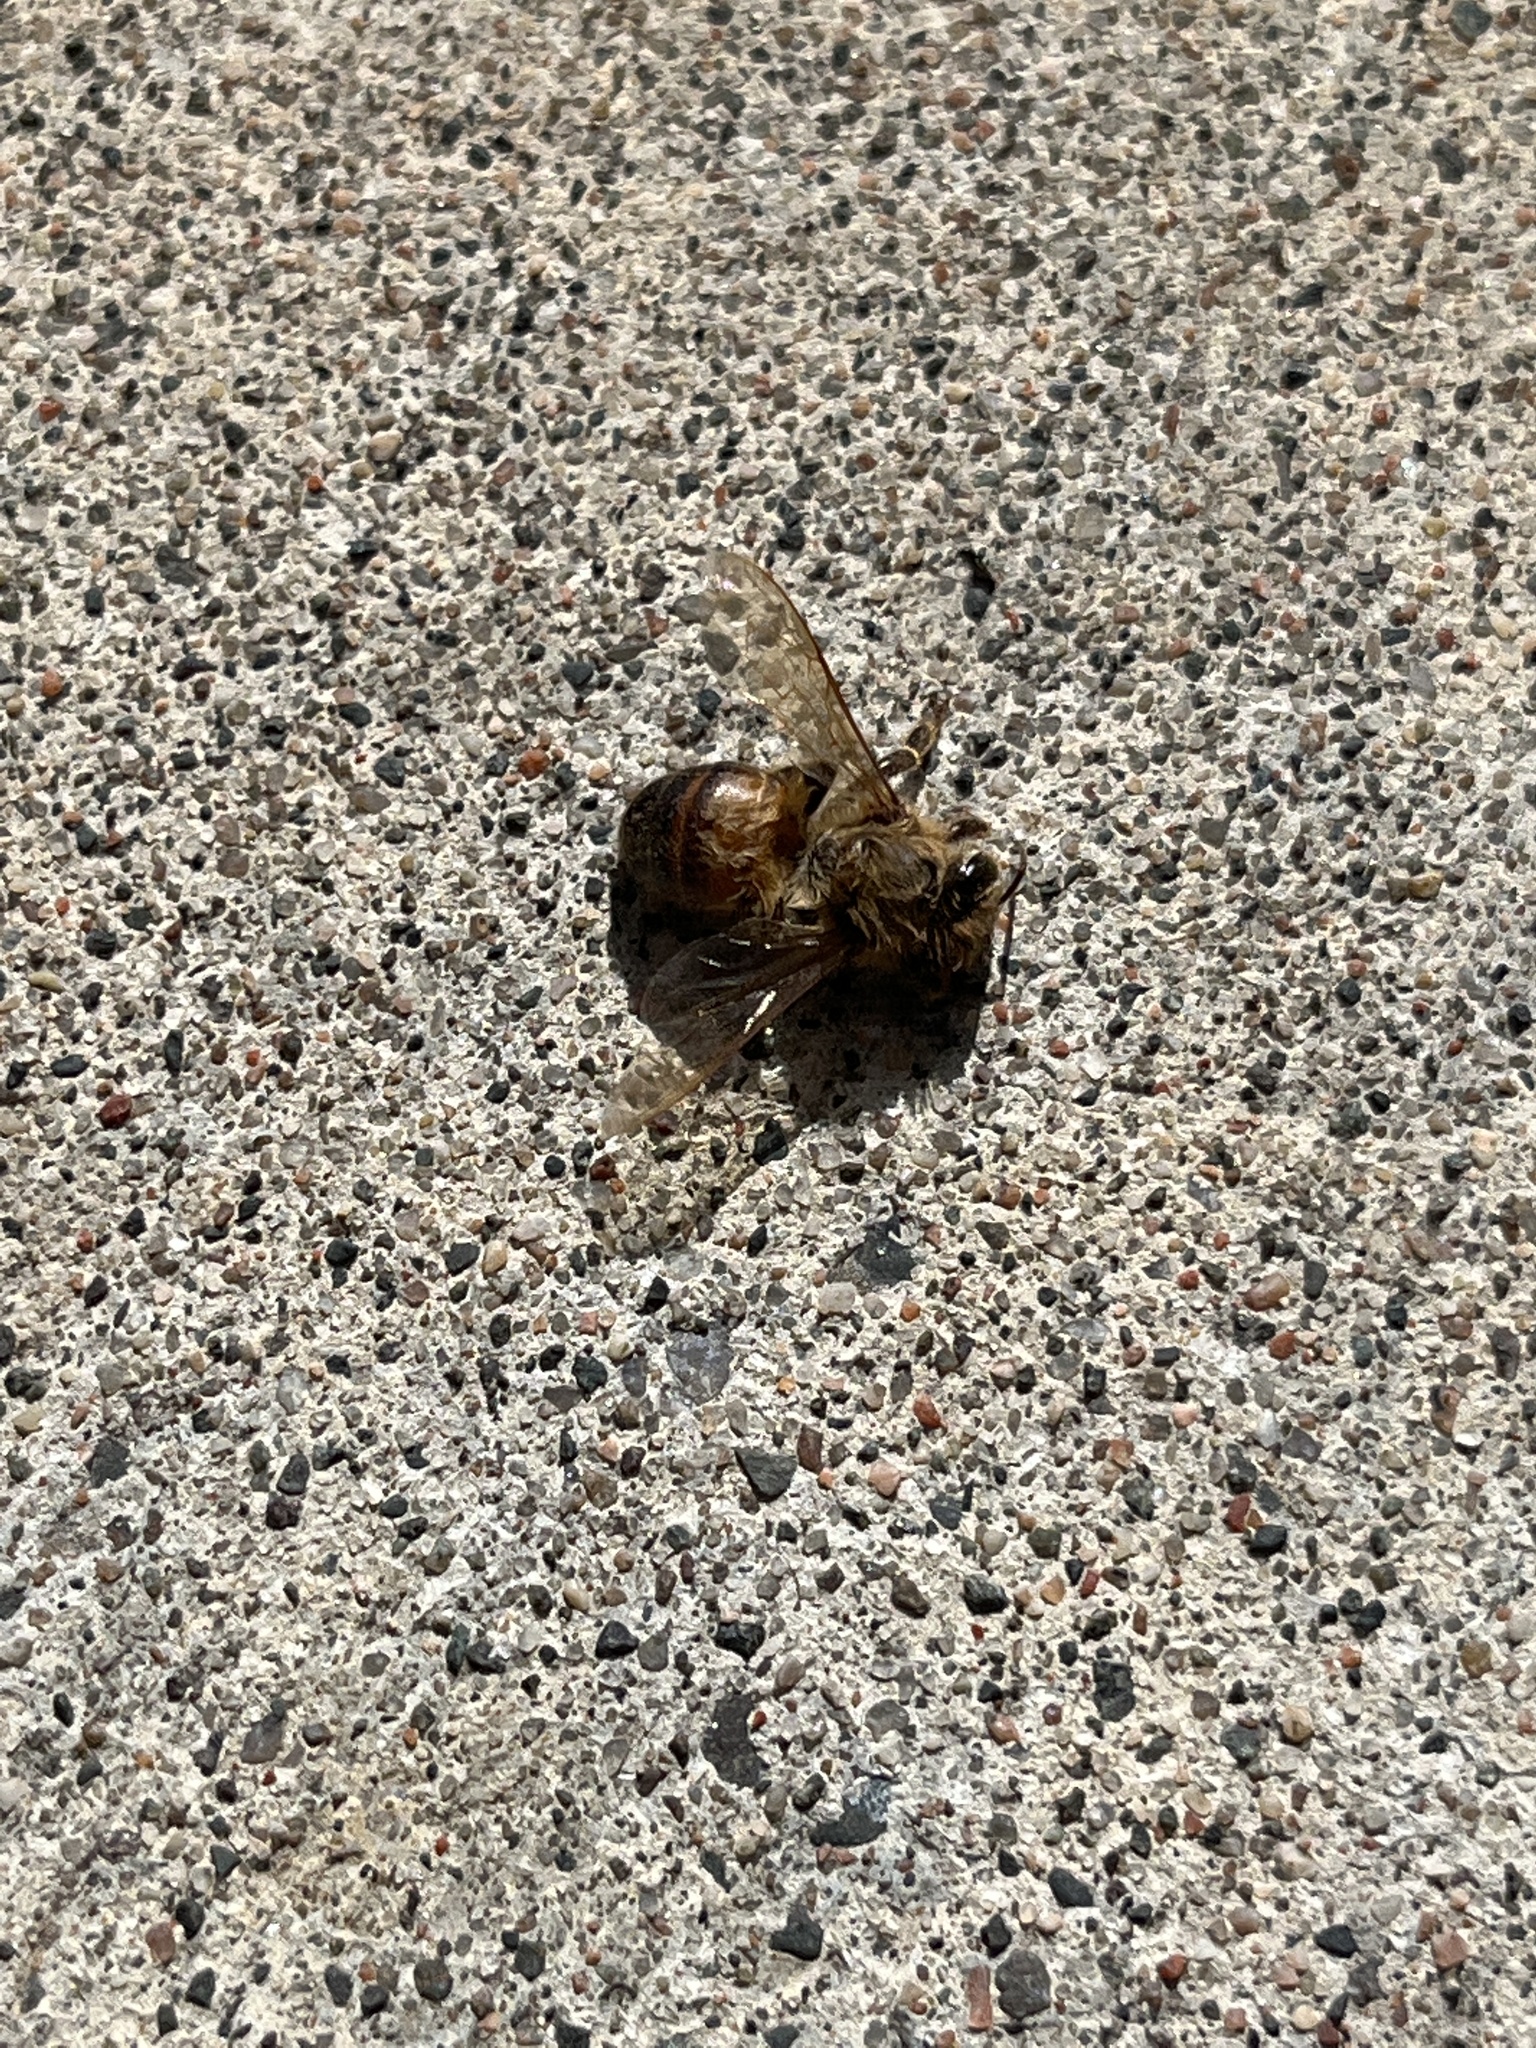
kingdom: Animalia
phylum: Arthropoda
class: Insecta
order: Hymenoptera
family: Apidae
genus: Apis
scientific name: Apis mellifera
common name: Honey bee
